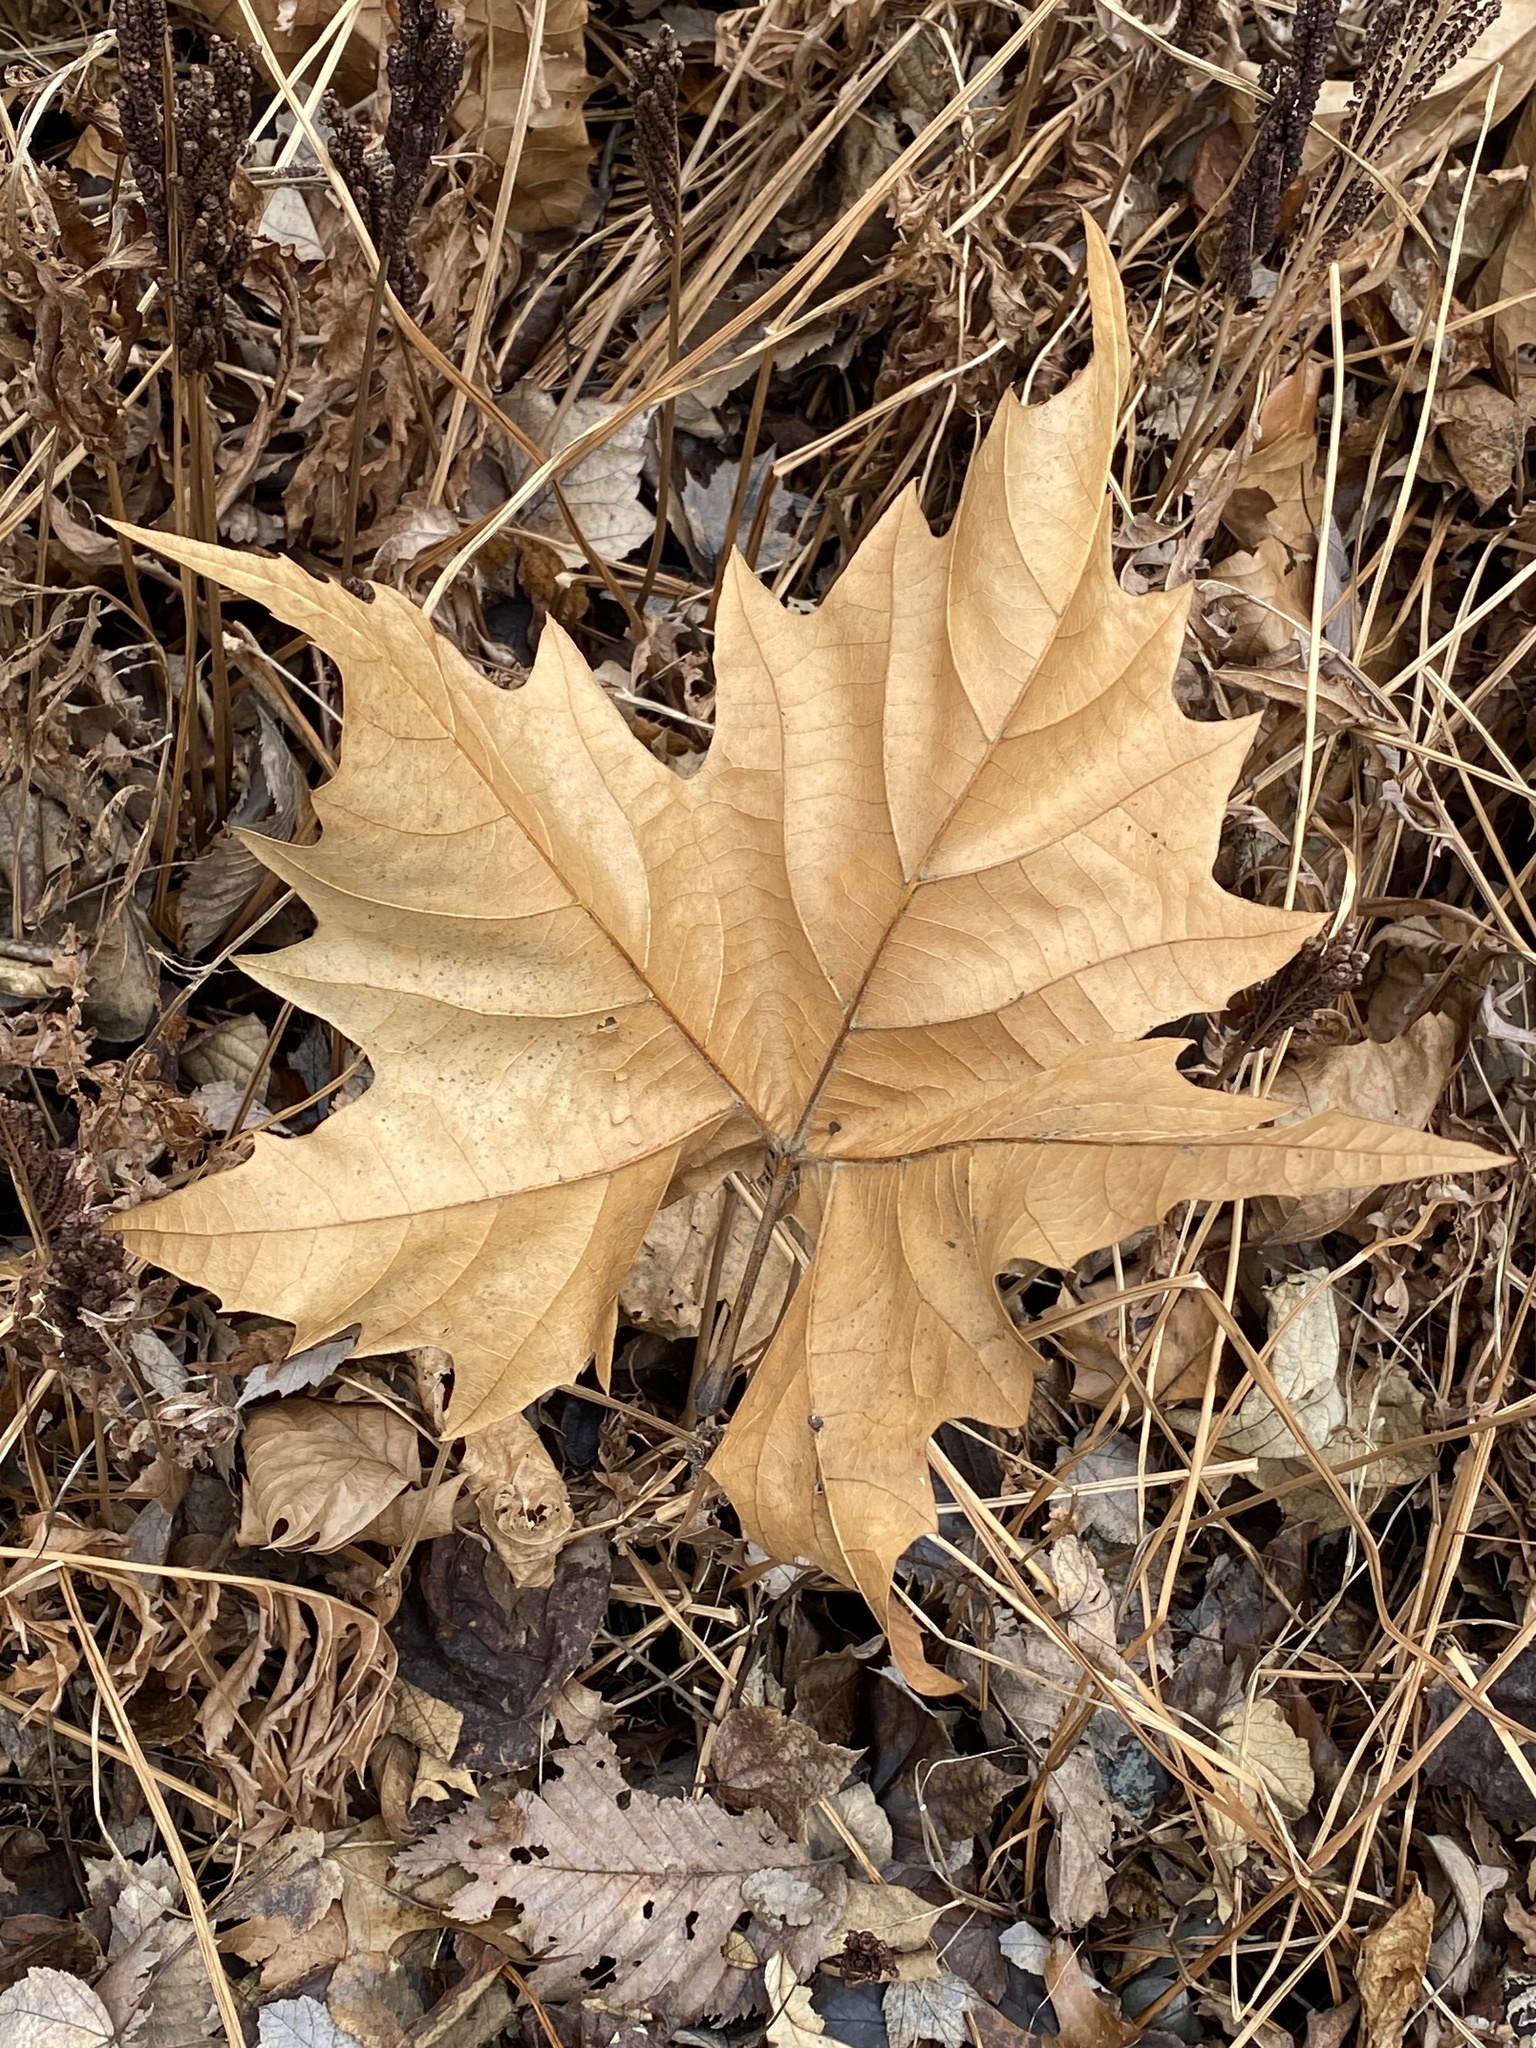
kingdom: Plantae
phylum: Tracheophyta
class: Magnoliopsida
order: Proteales
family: Platanaceae
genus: Platanus
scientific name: Platanus occidentalis
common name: American sycamore
